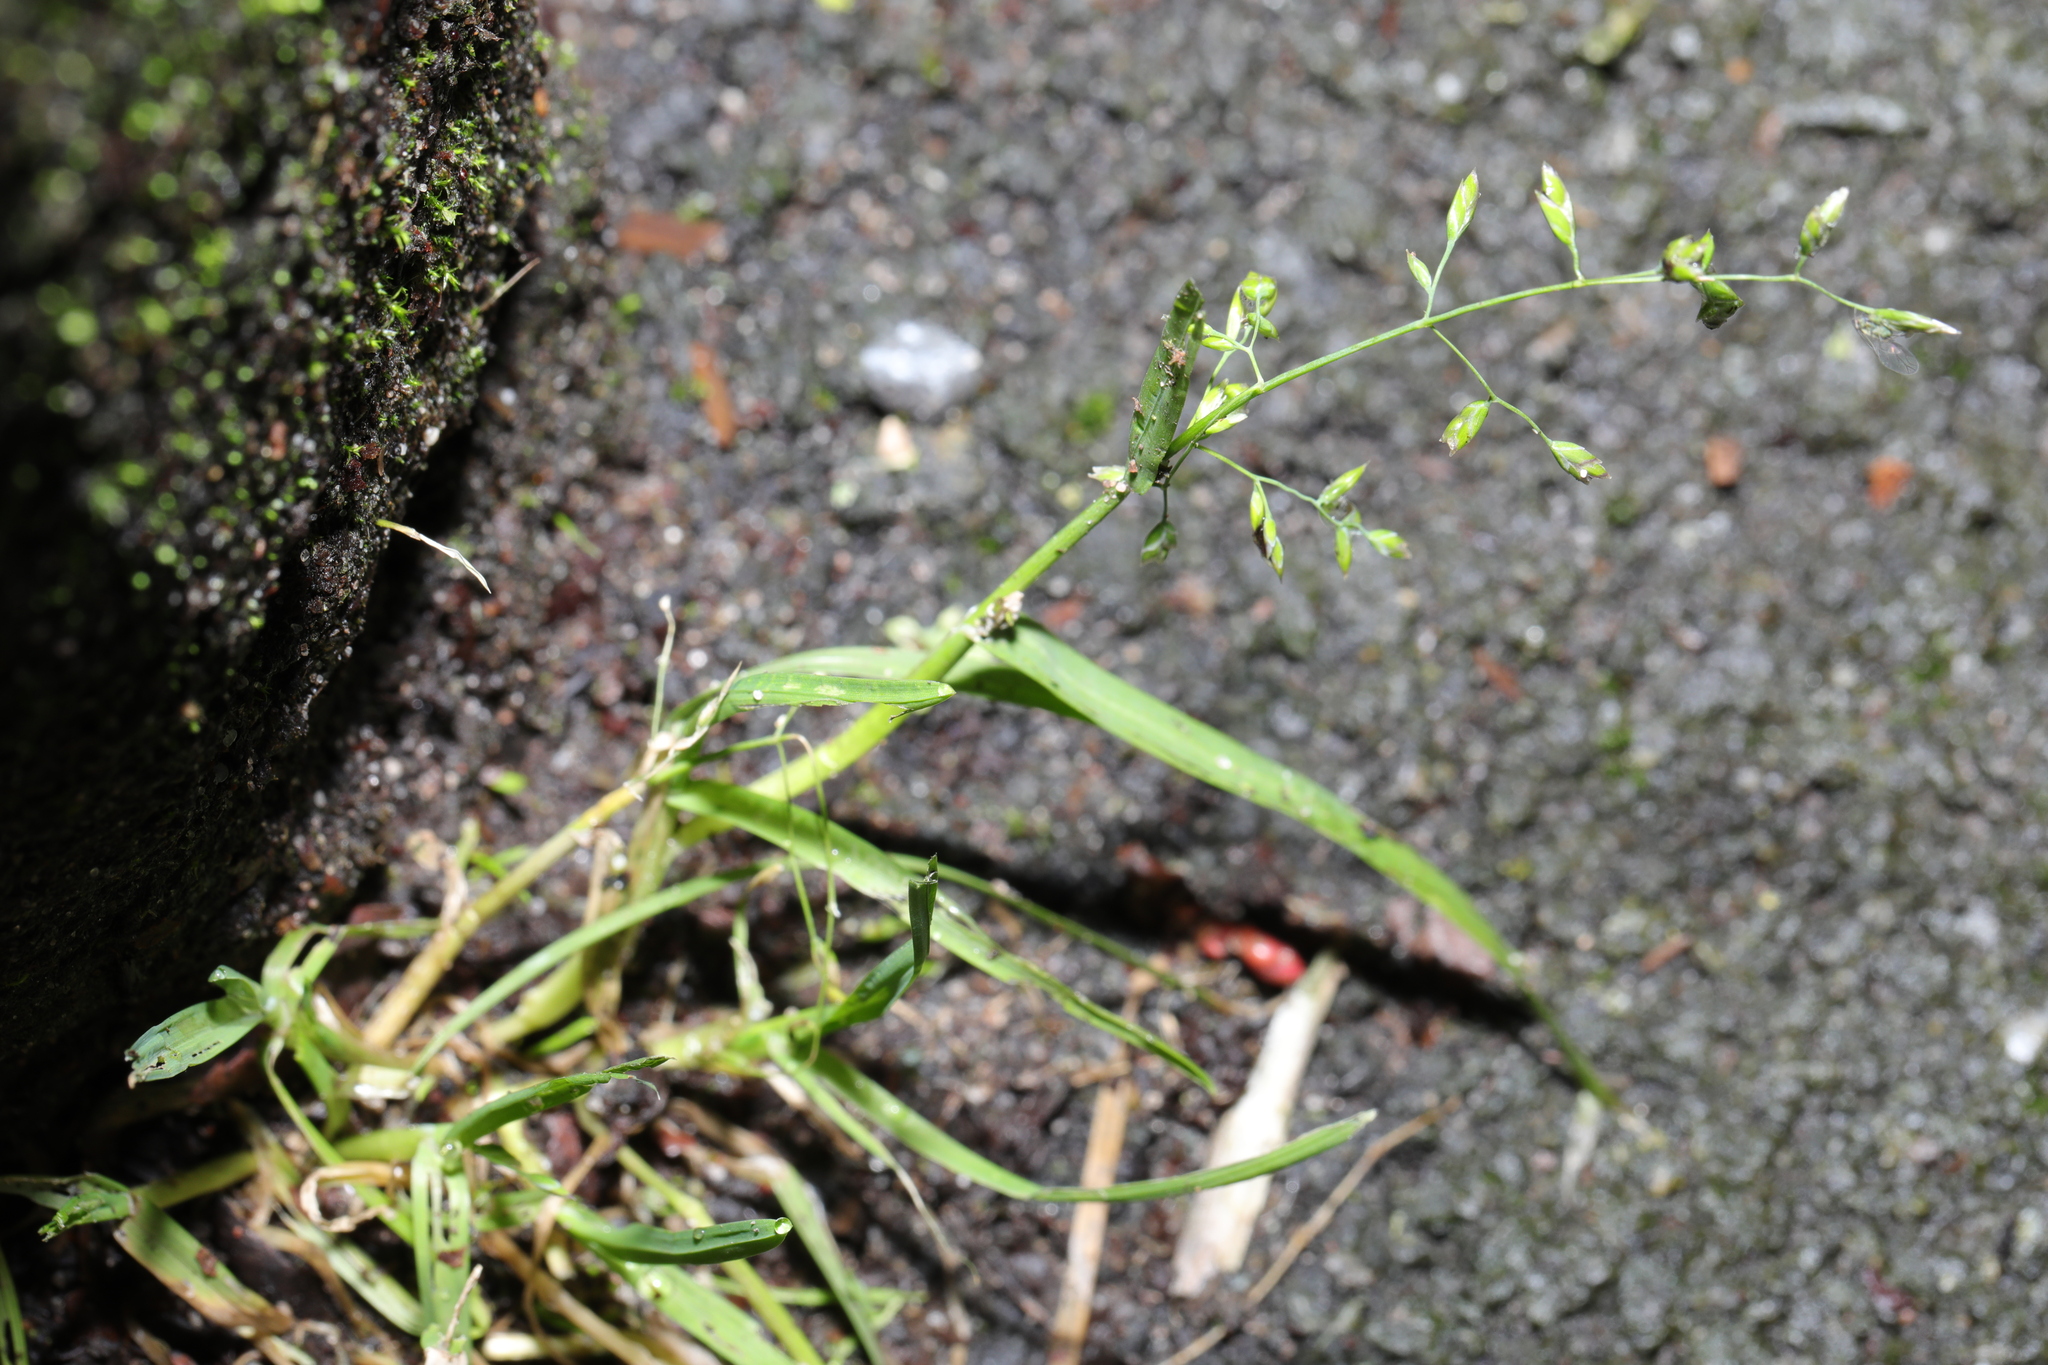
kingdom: Plantae
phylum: Tracheophyta
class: Liliopsida
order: Poales
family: Poaceae
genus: Poa
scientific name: Poa annua
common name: Annual bluegrass
